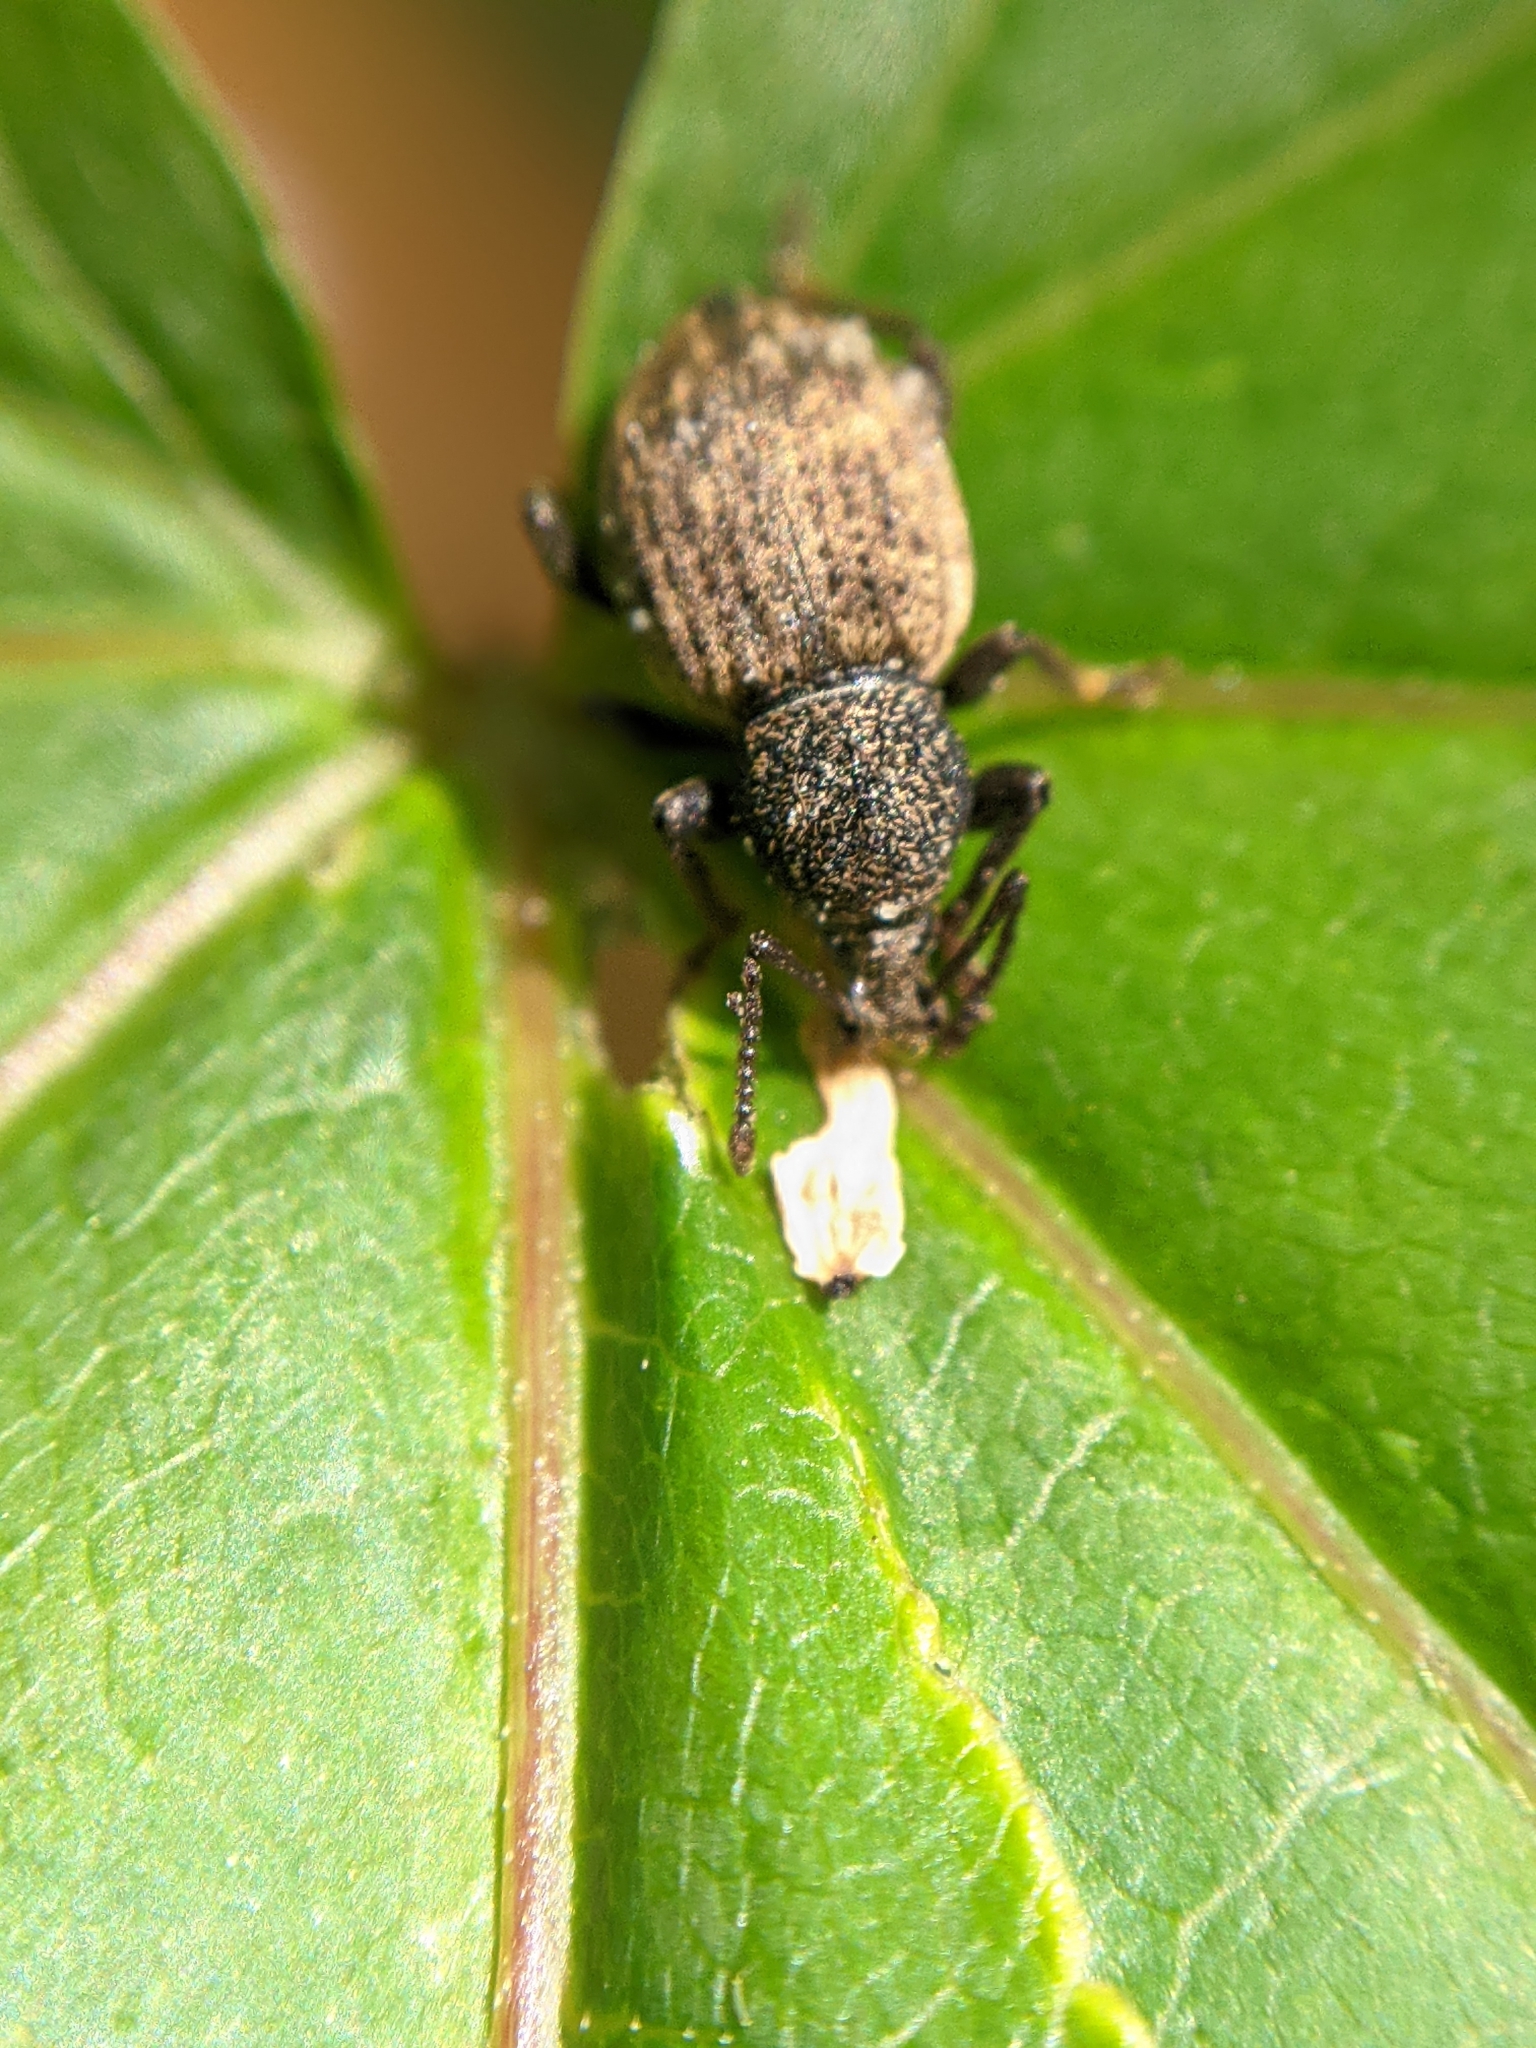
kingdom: Animalia
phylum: Arthropoda
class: Insecta
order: Coleoptera
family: Curculionidae
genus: Otiorhynchus
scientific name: Otiorhynchus raucus
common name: Weevil
